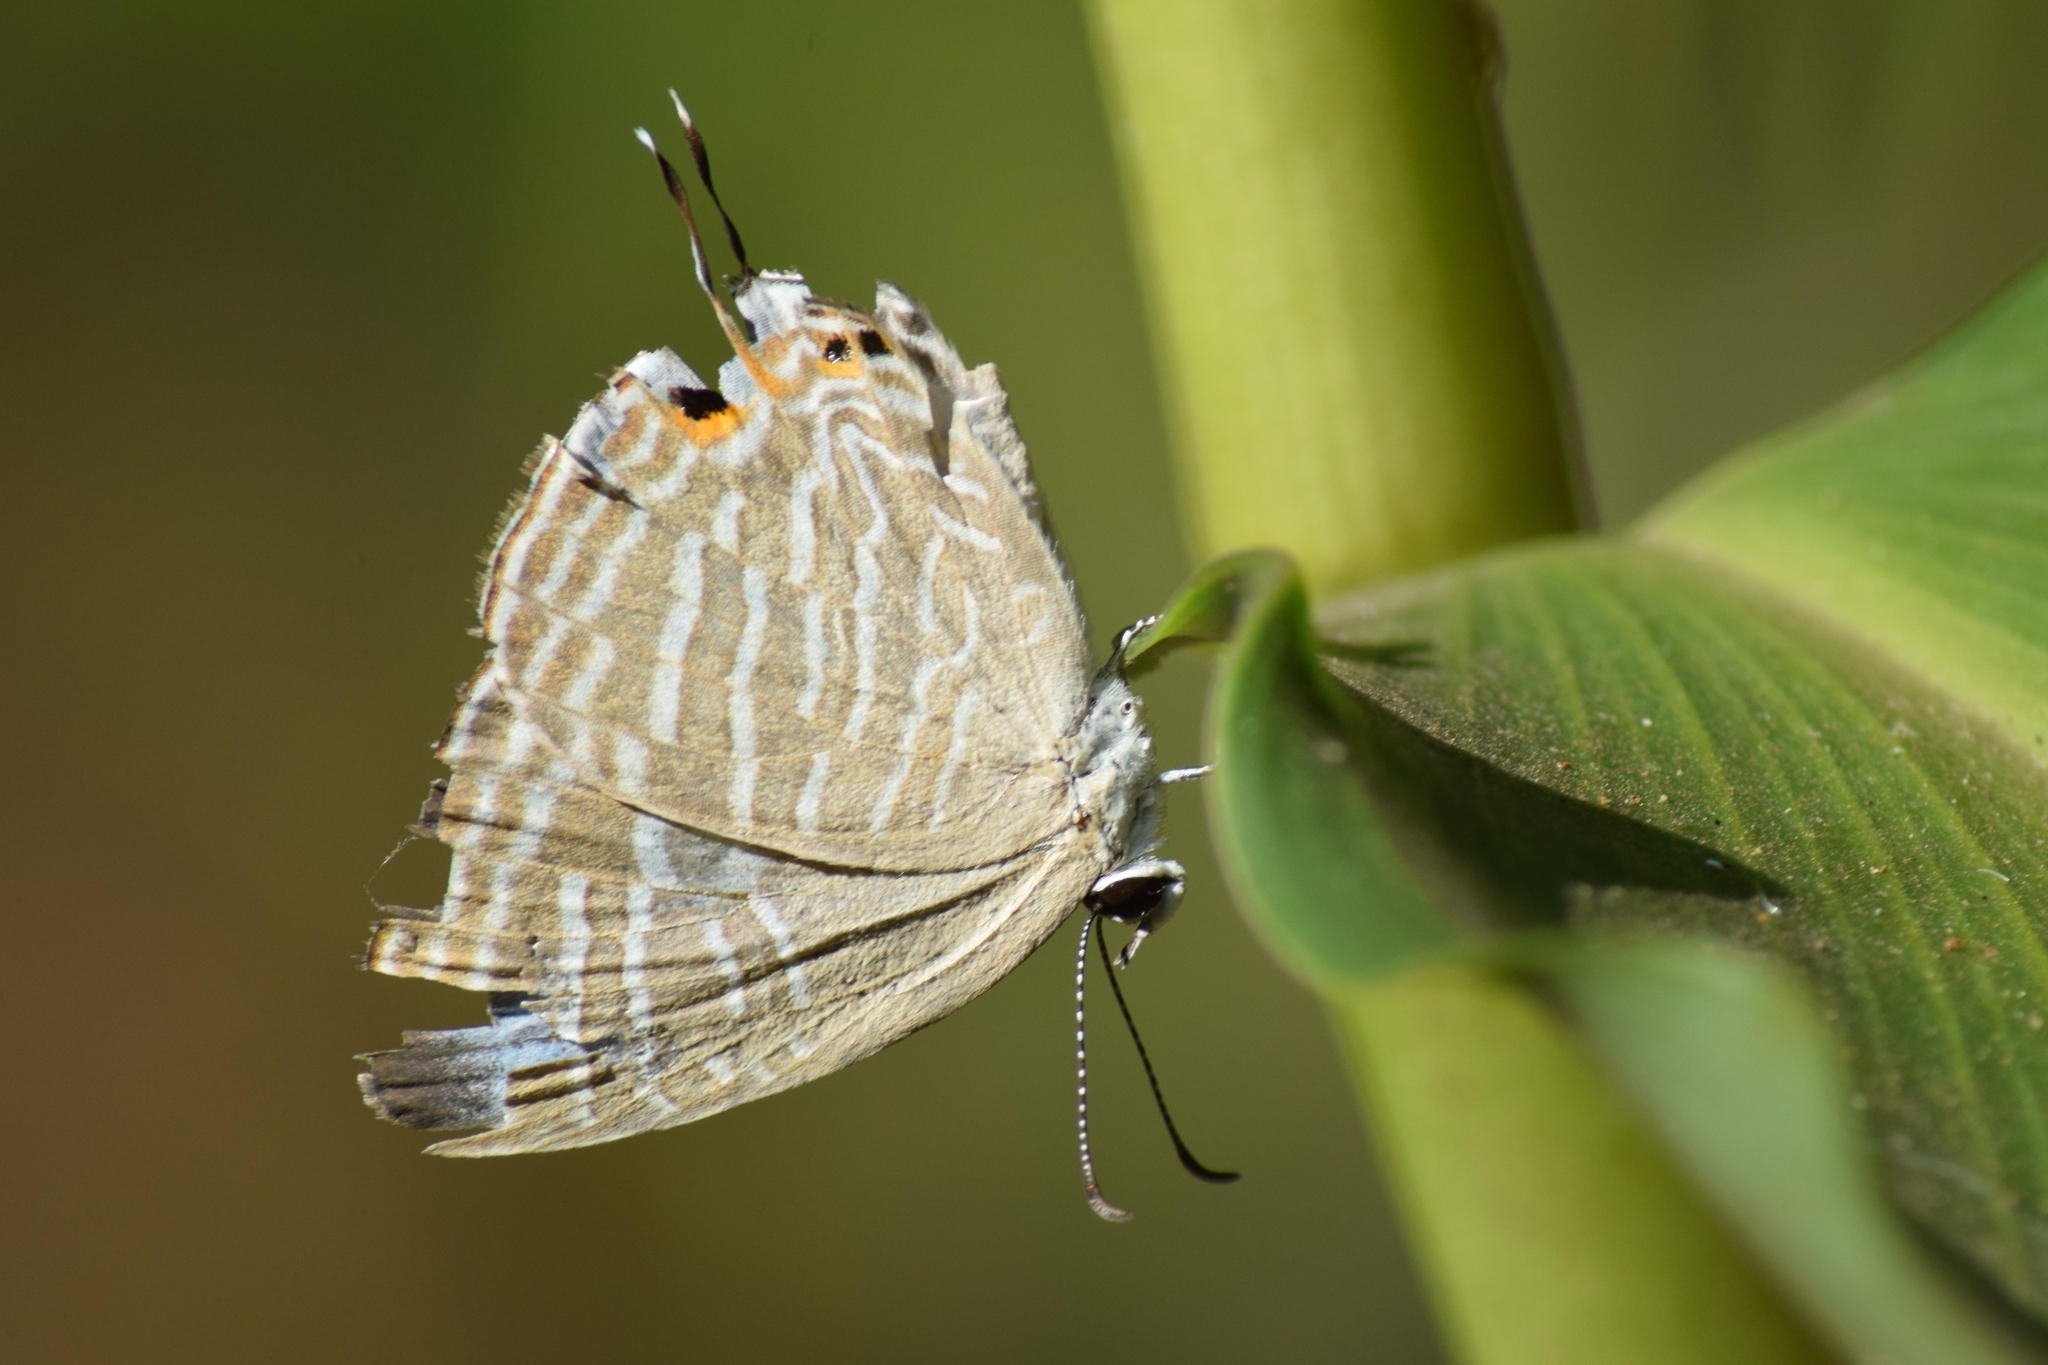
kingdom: Animalia
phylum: Arthropoda
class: Insecta
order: Lepidoptera
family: Lycaenidae
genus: Jamides
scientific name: Jamides celeno
